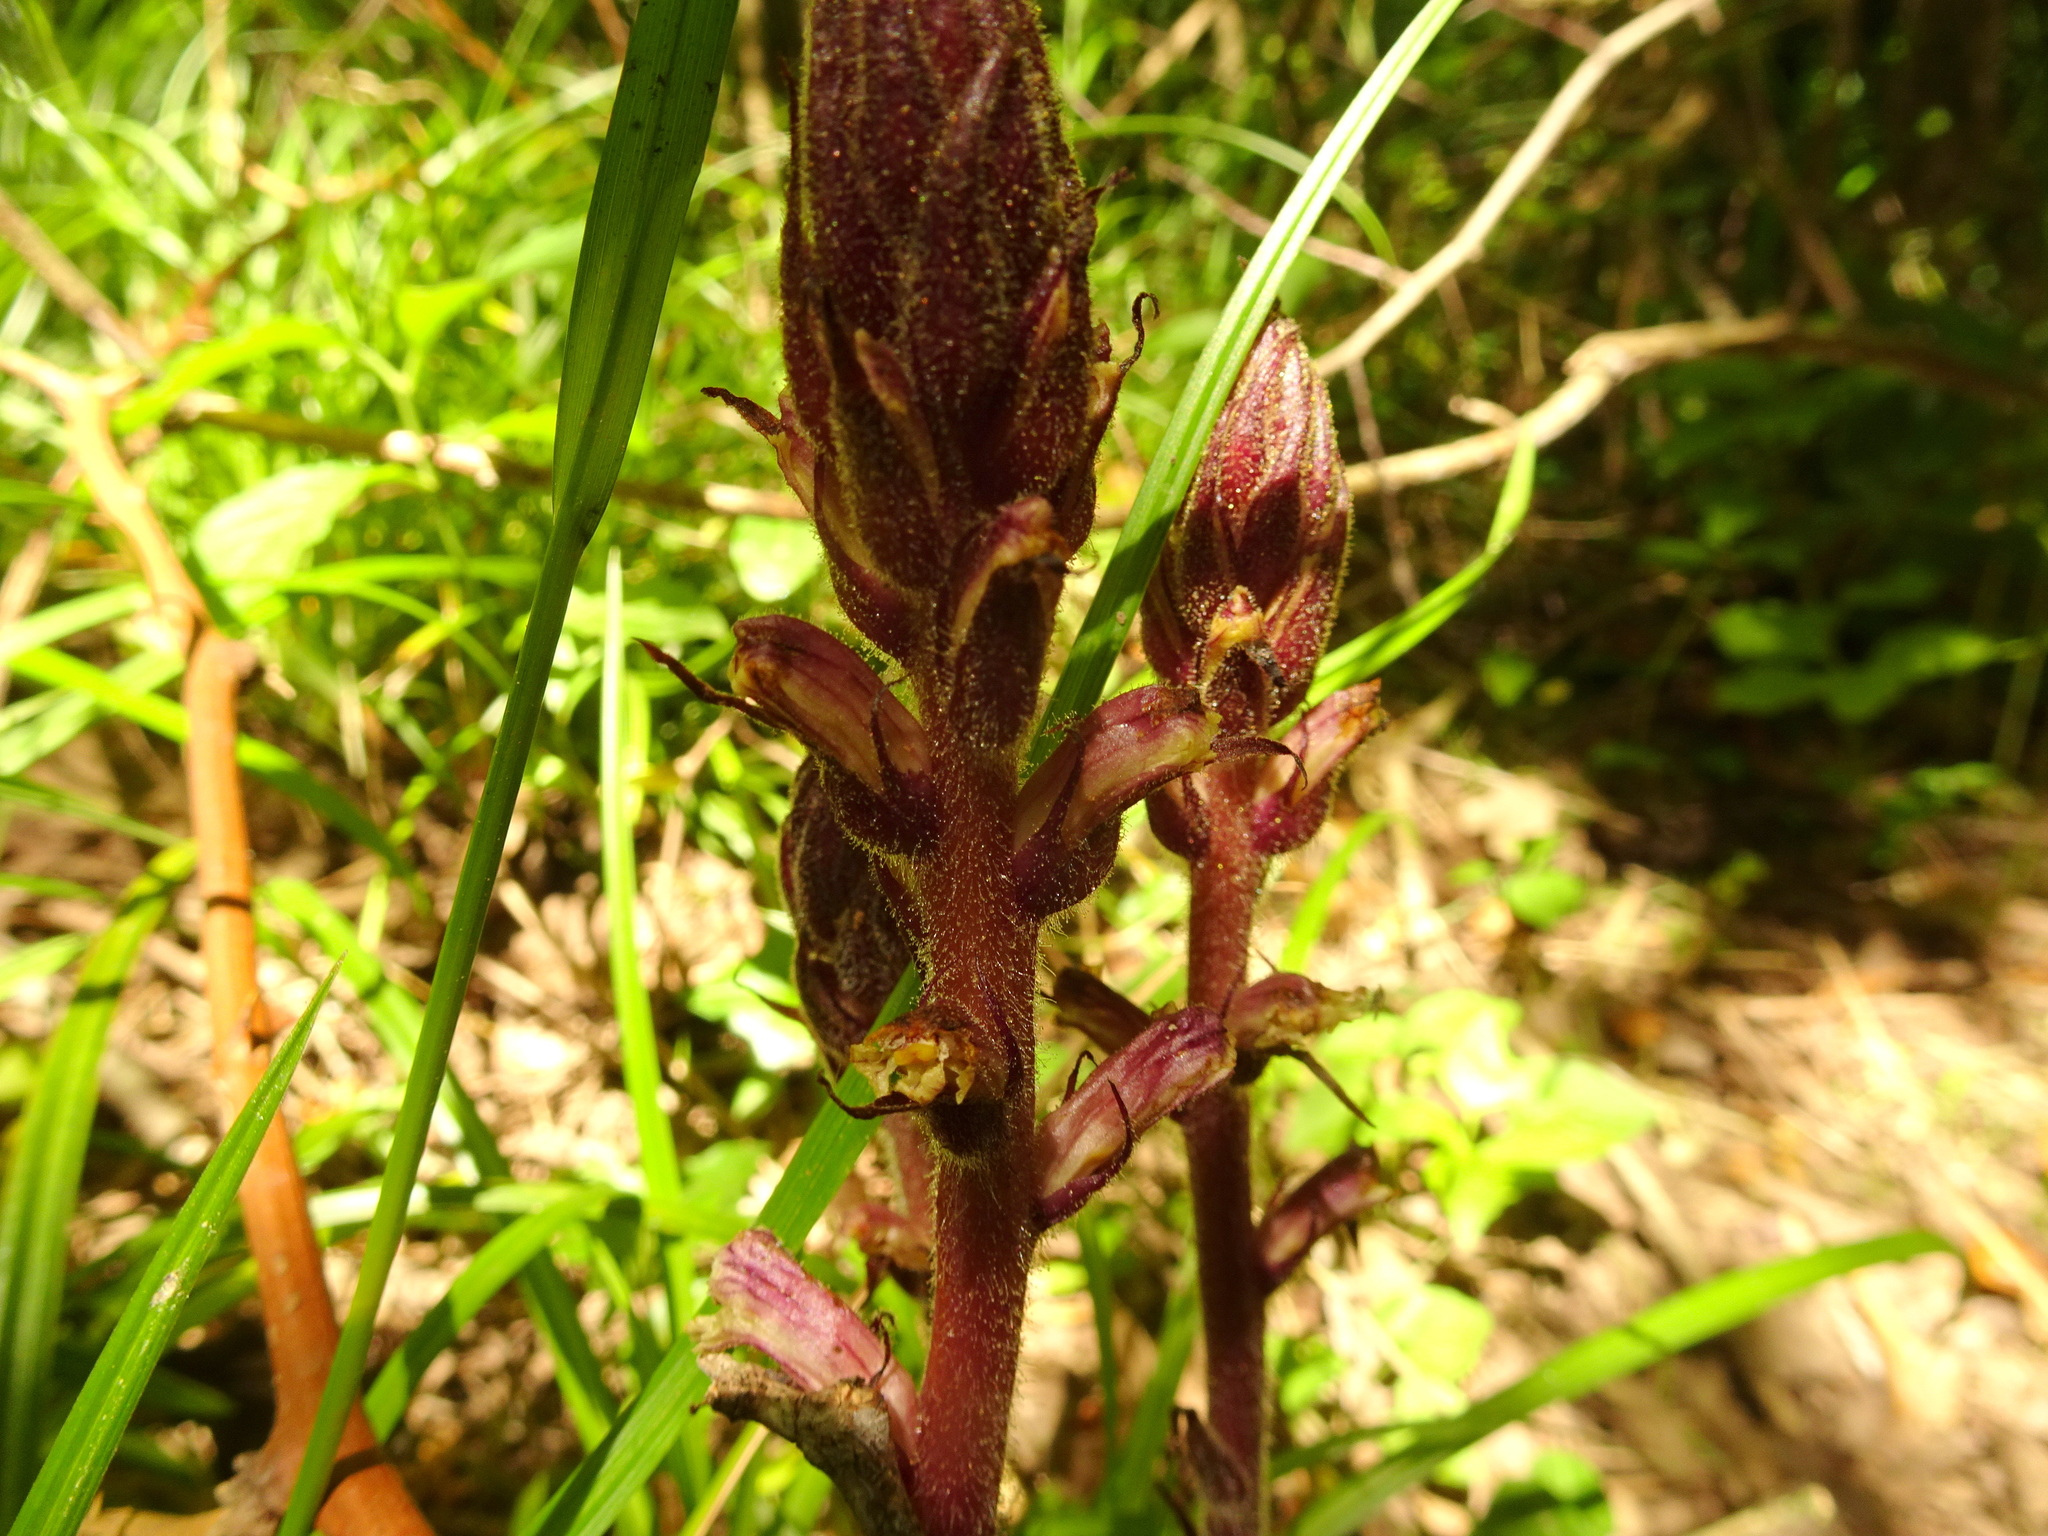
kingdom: Plantae
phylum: Tracheophyta
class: Magnoliopsida
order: Lamiales
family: Orobanchaceae
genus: Orobanche
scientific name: Orobanche hederae
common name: Ivy broomrape
